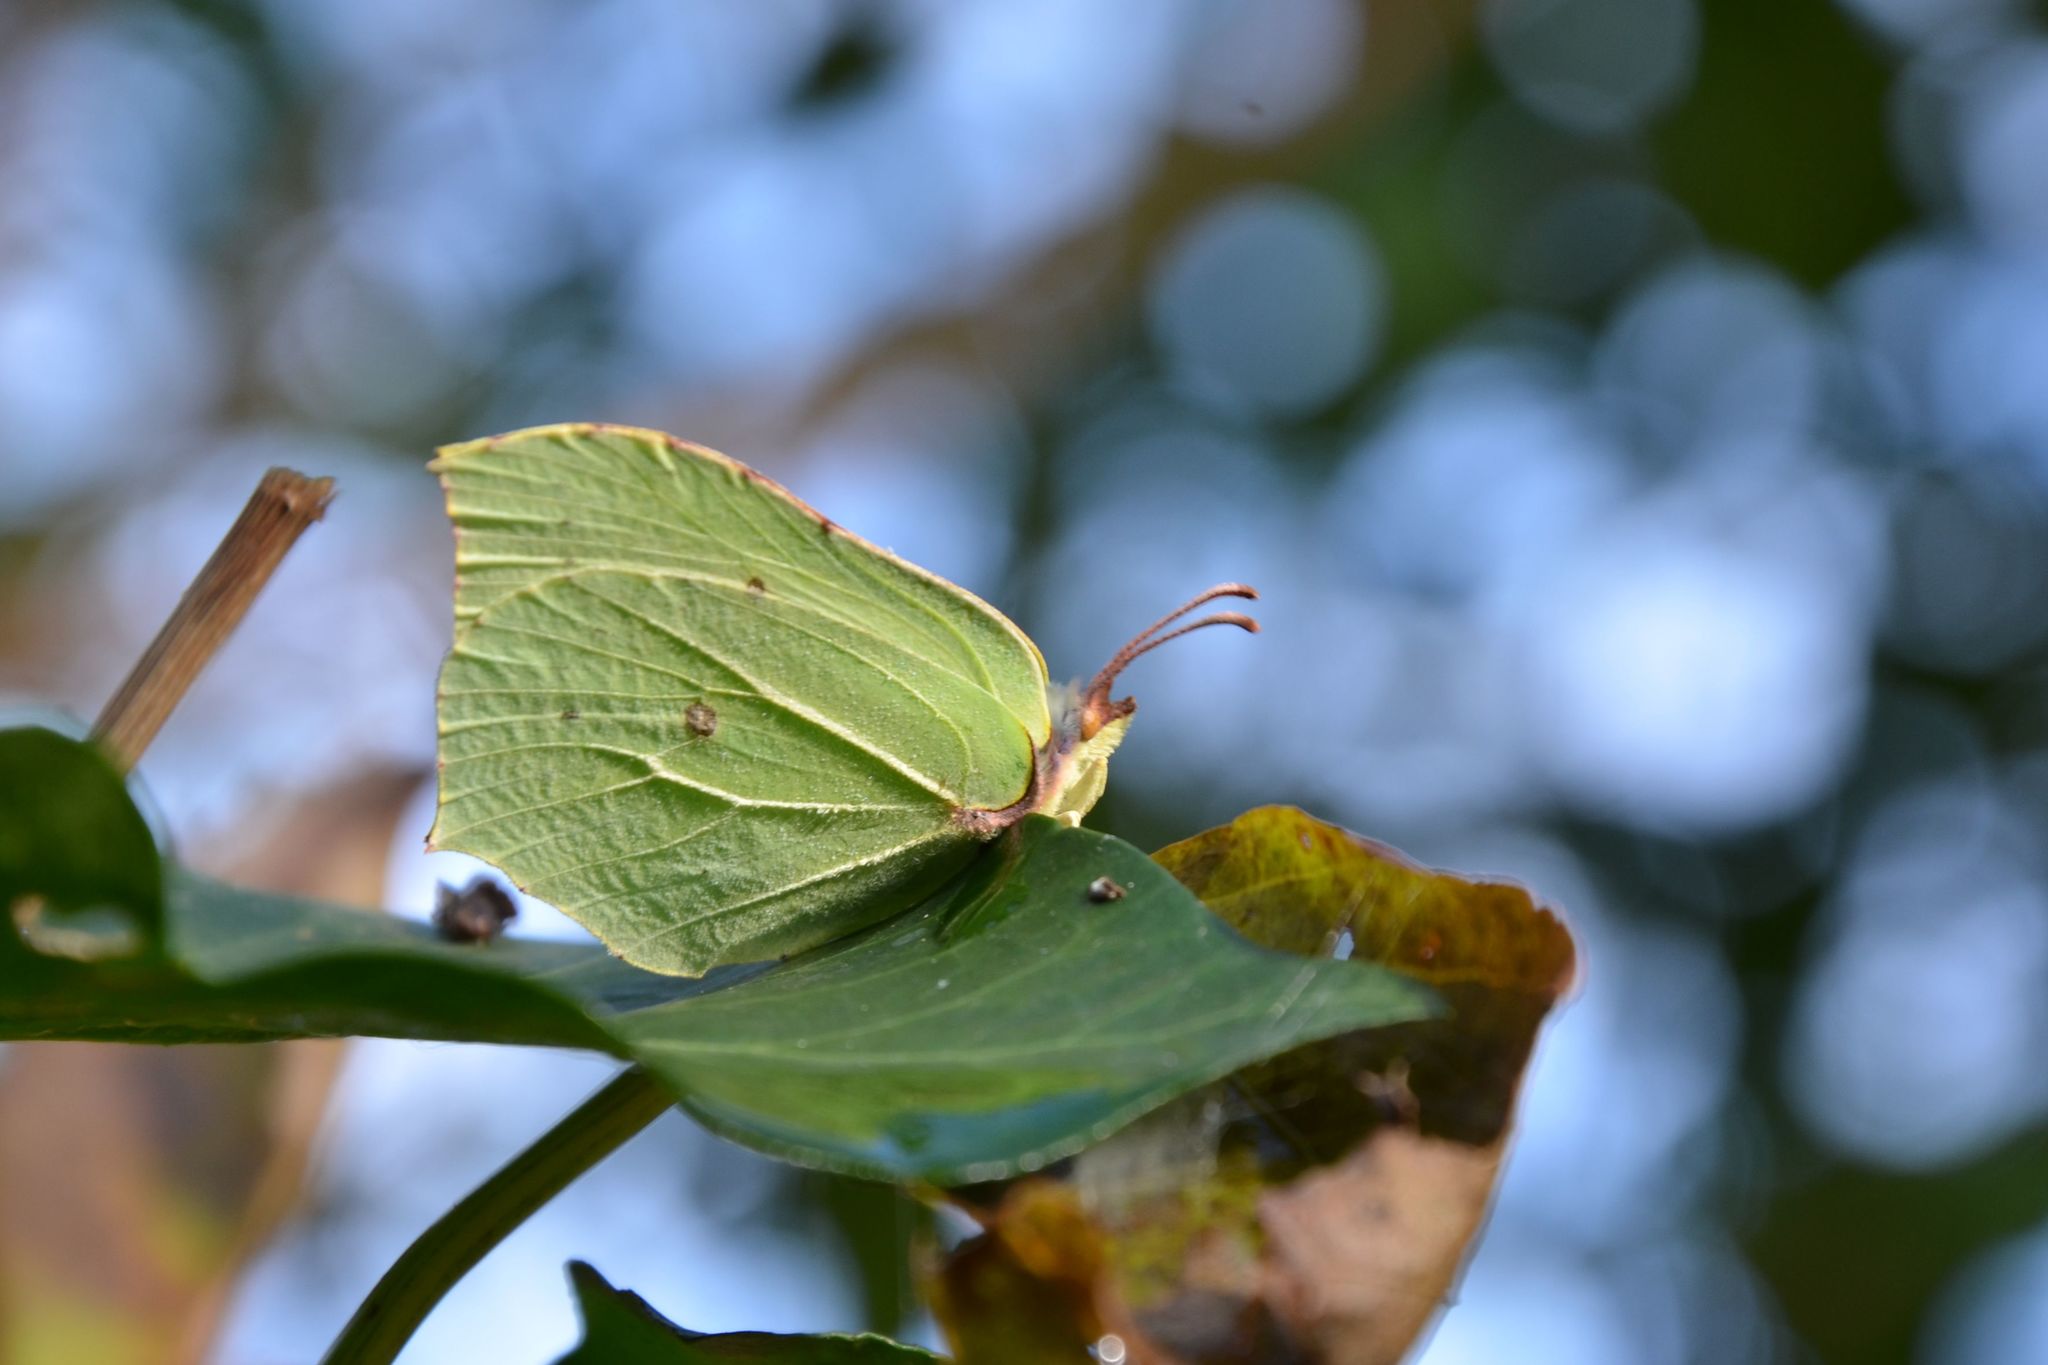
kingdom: Animalia
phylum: Arthropoda
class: Insecta
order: Lepidoptera
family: Pieridae
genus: Gonepteryx
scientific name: Gonepteryx rhamni
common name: Brimstone
